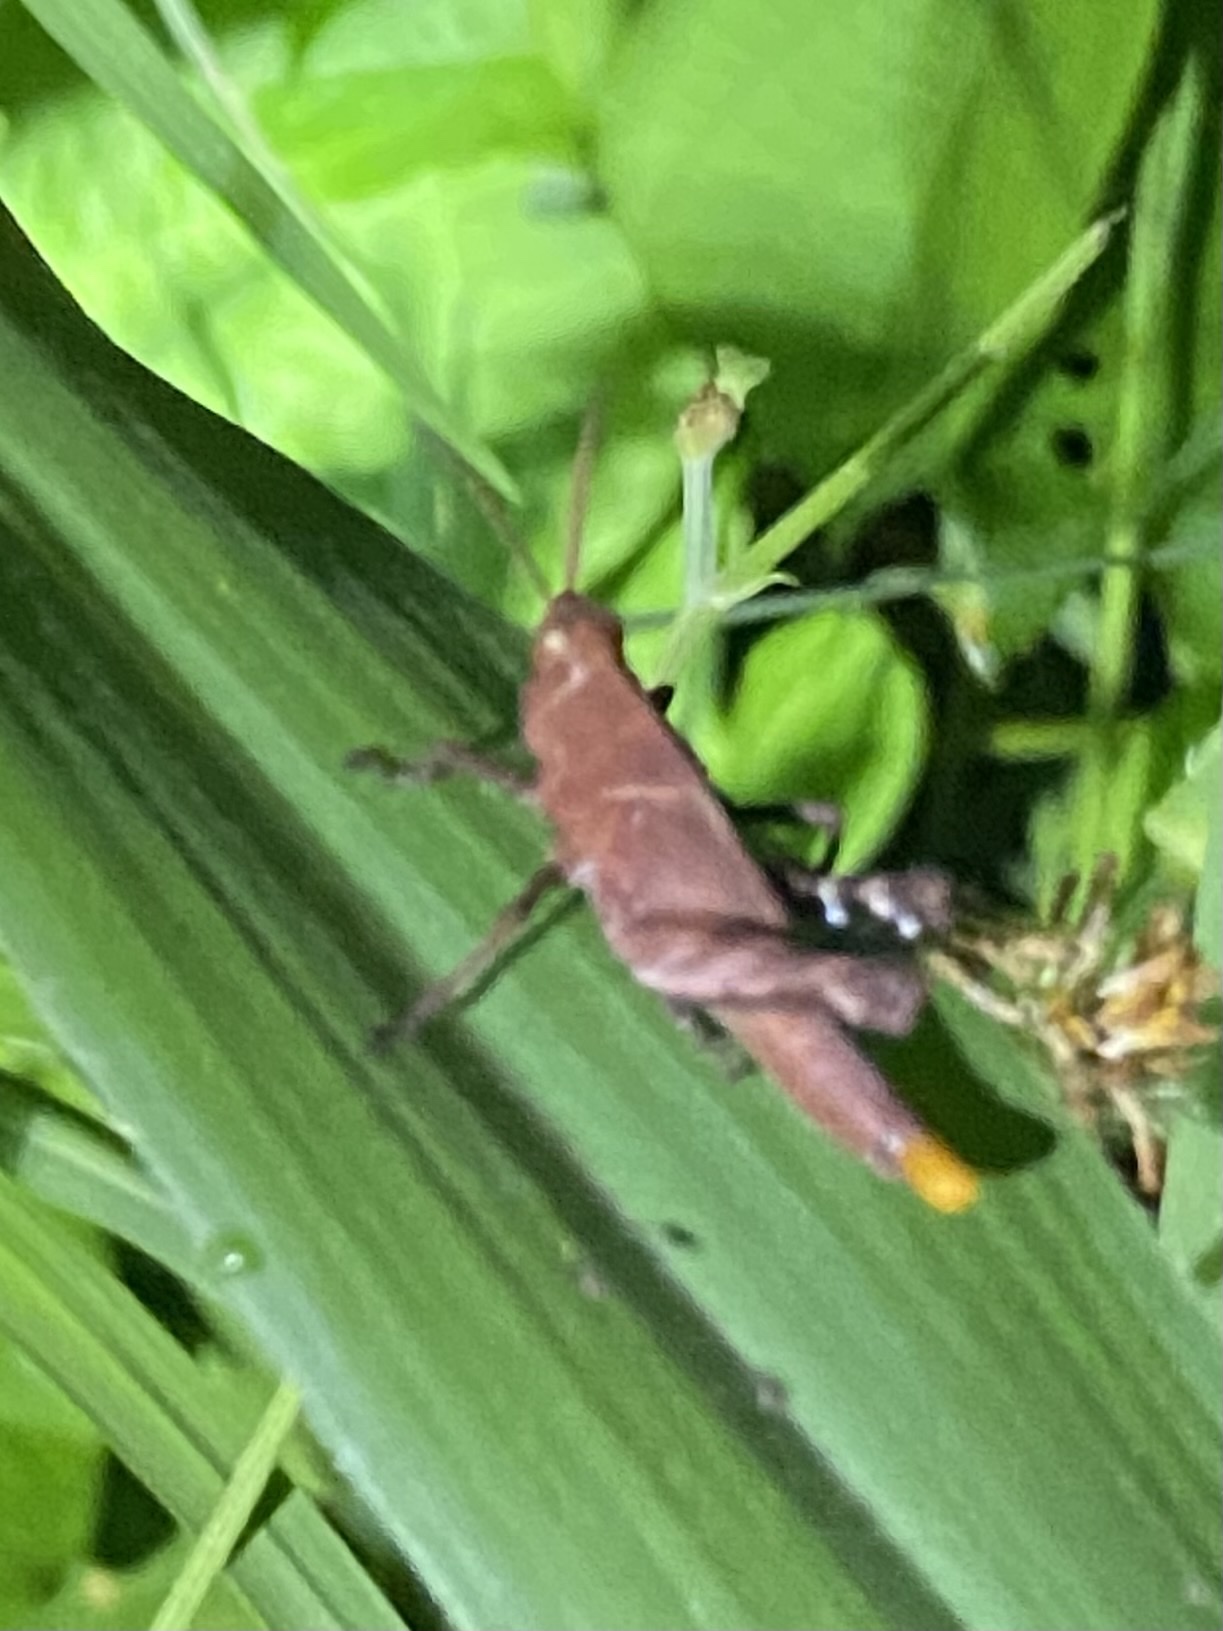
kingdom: Animalia
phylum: Arthropoda
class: Insecta
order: Orthoptera
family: Acrididae
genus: Machaerocera
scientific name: Machaerocera mexicana
